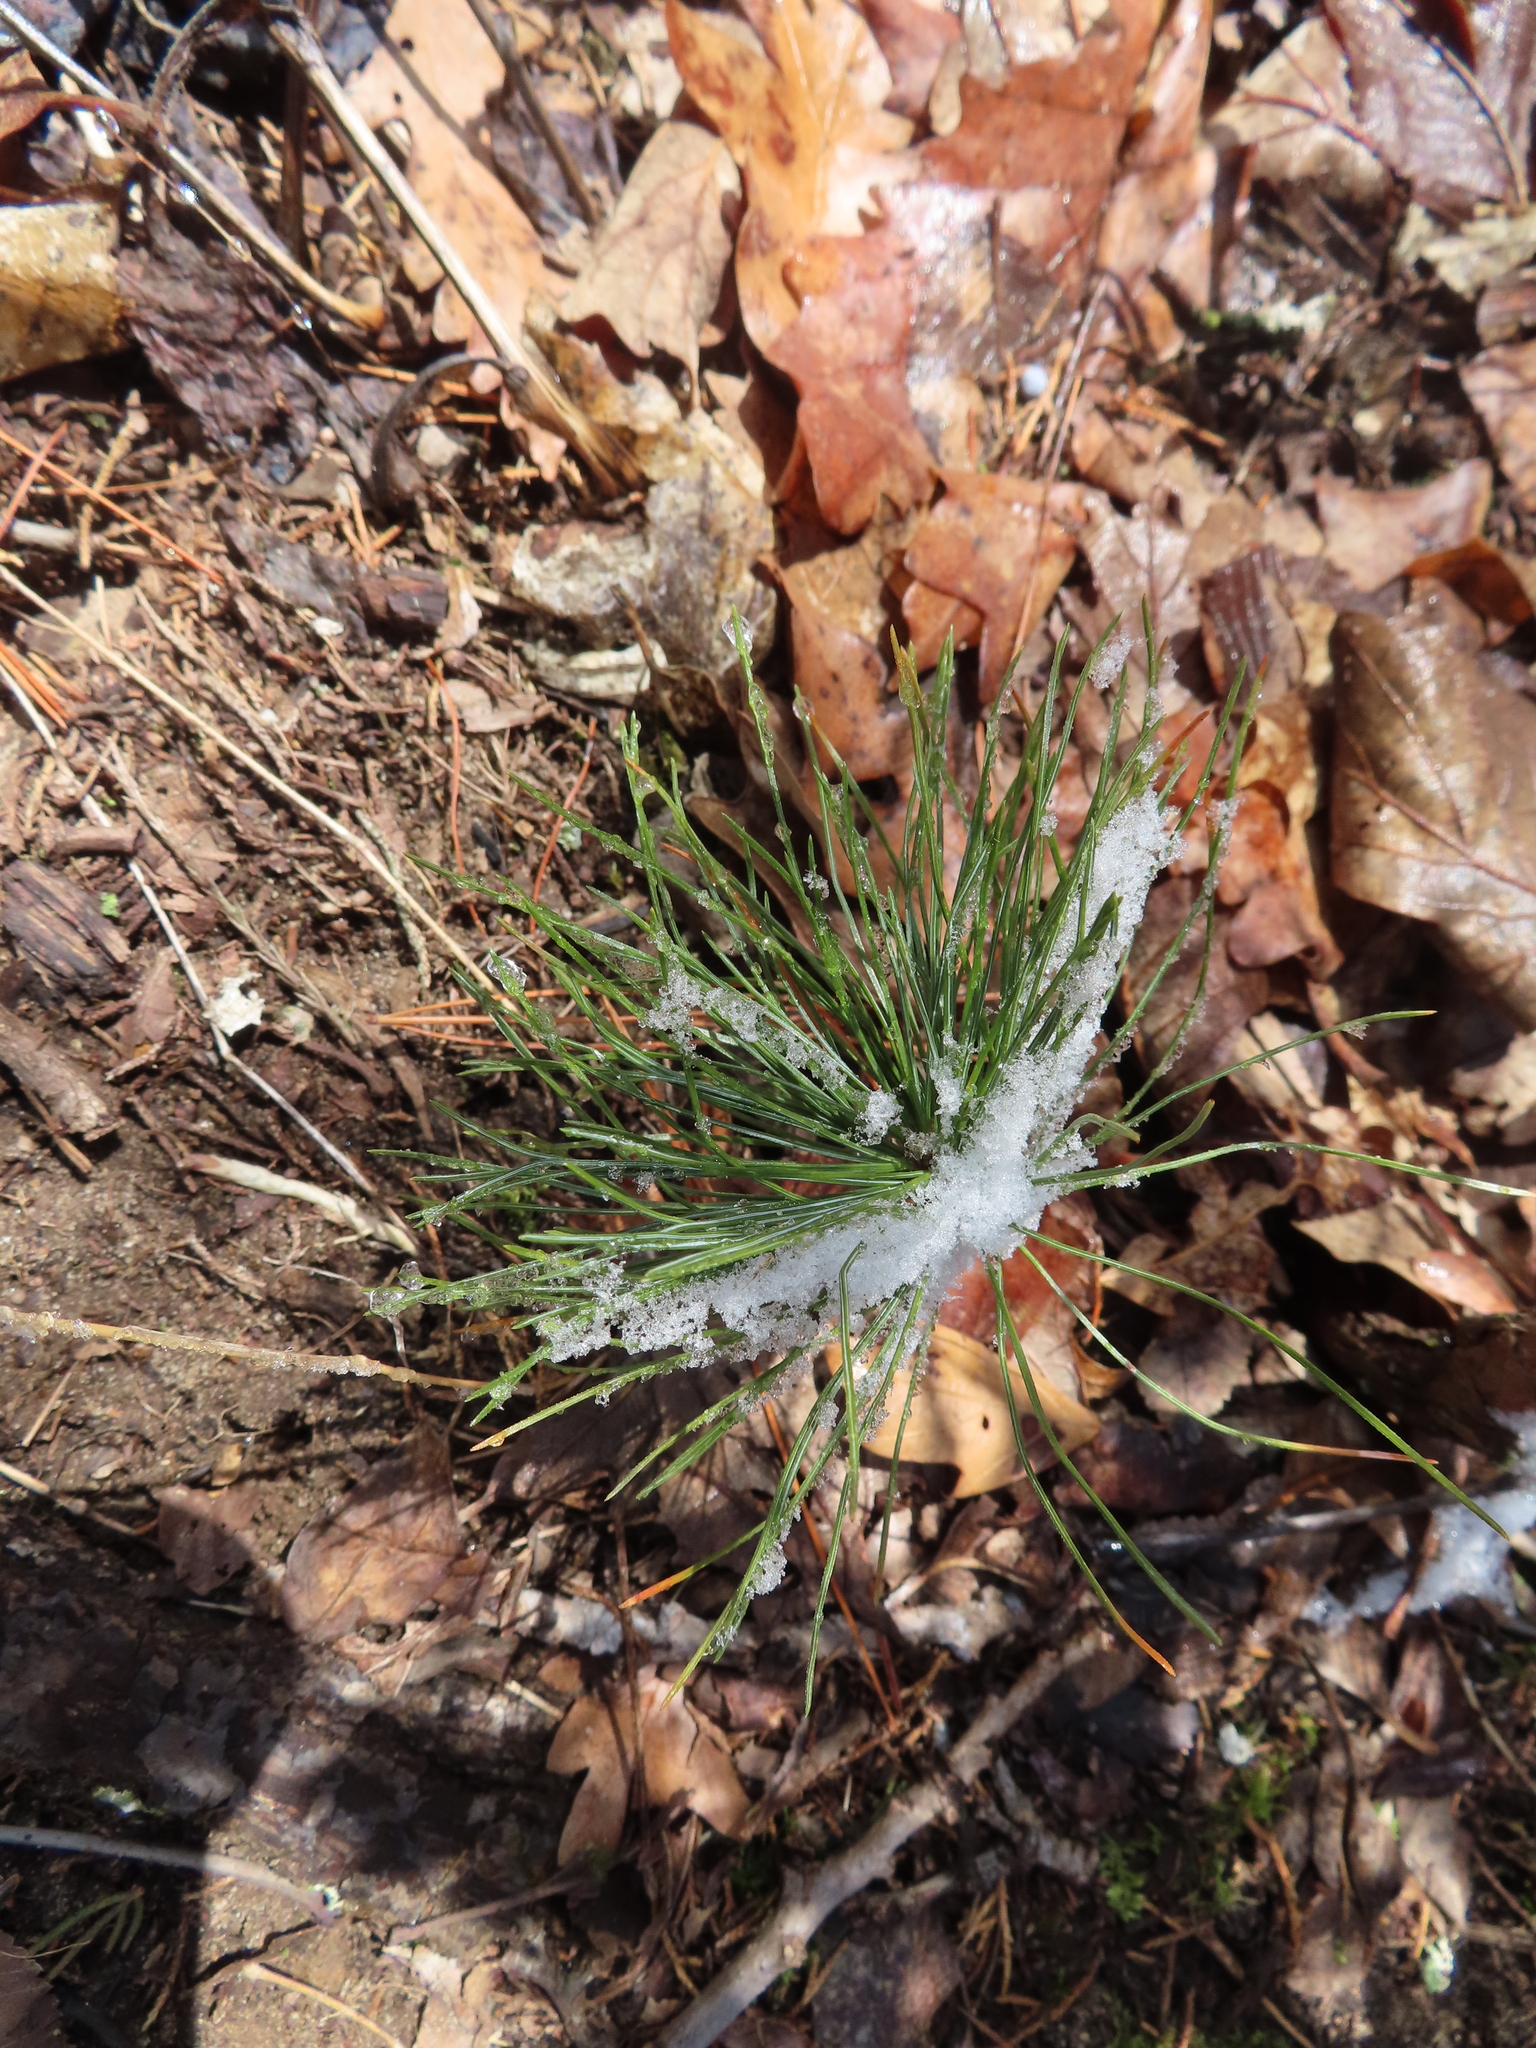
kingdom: Plantae
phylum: Tracheophyta
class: Pinopsida
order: Pinales
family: Pinaceae
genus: Pinus
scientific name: Pinus strobus
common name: Weymouth pine
